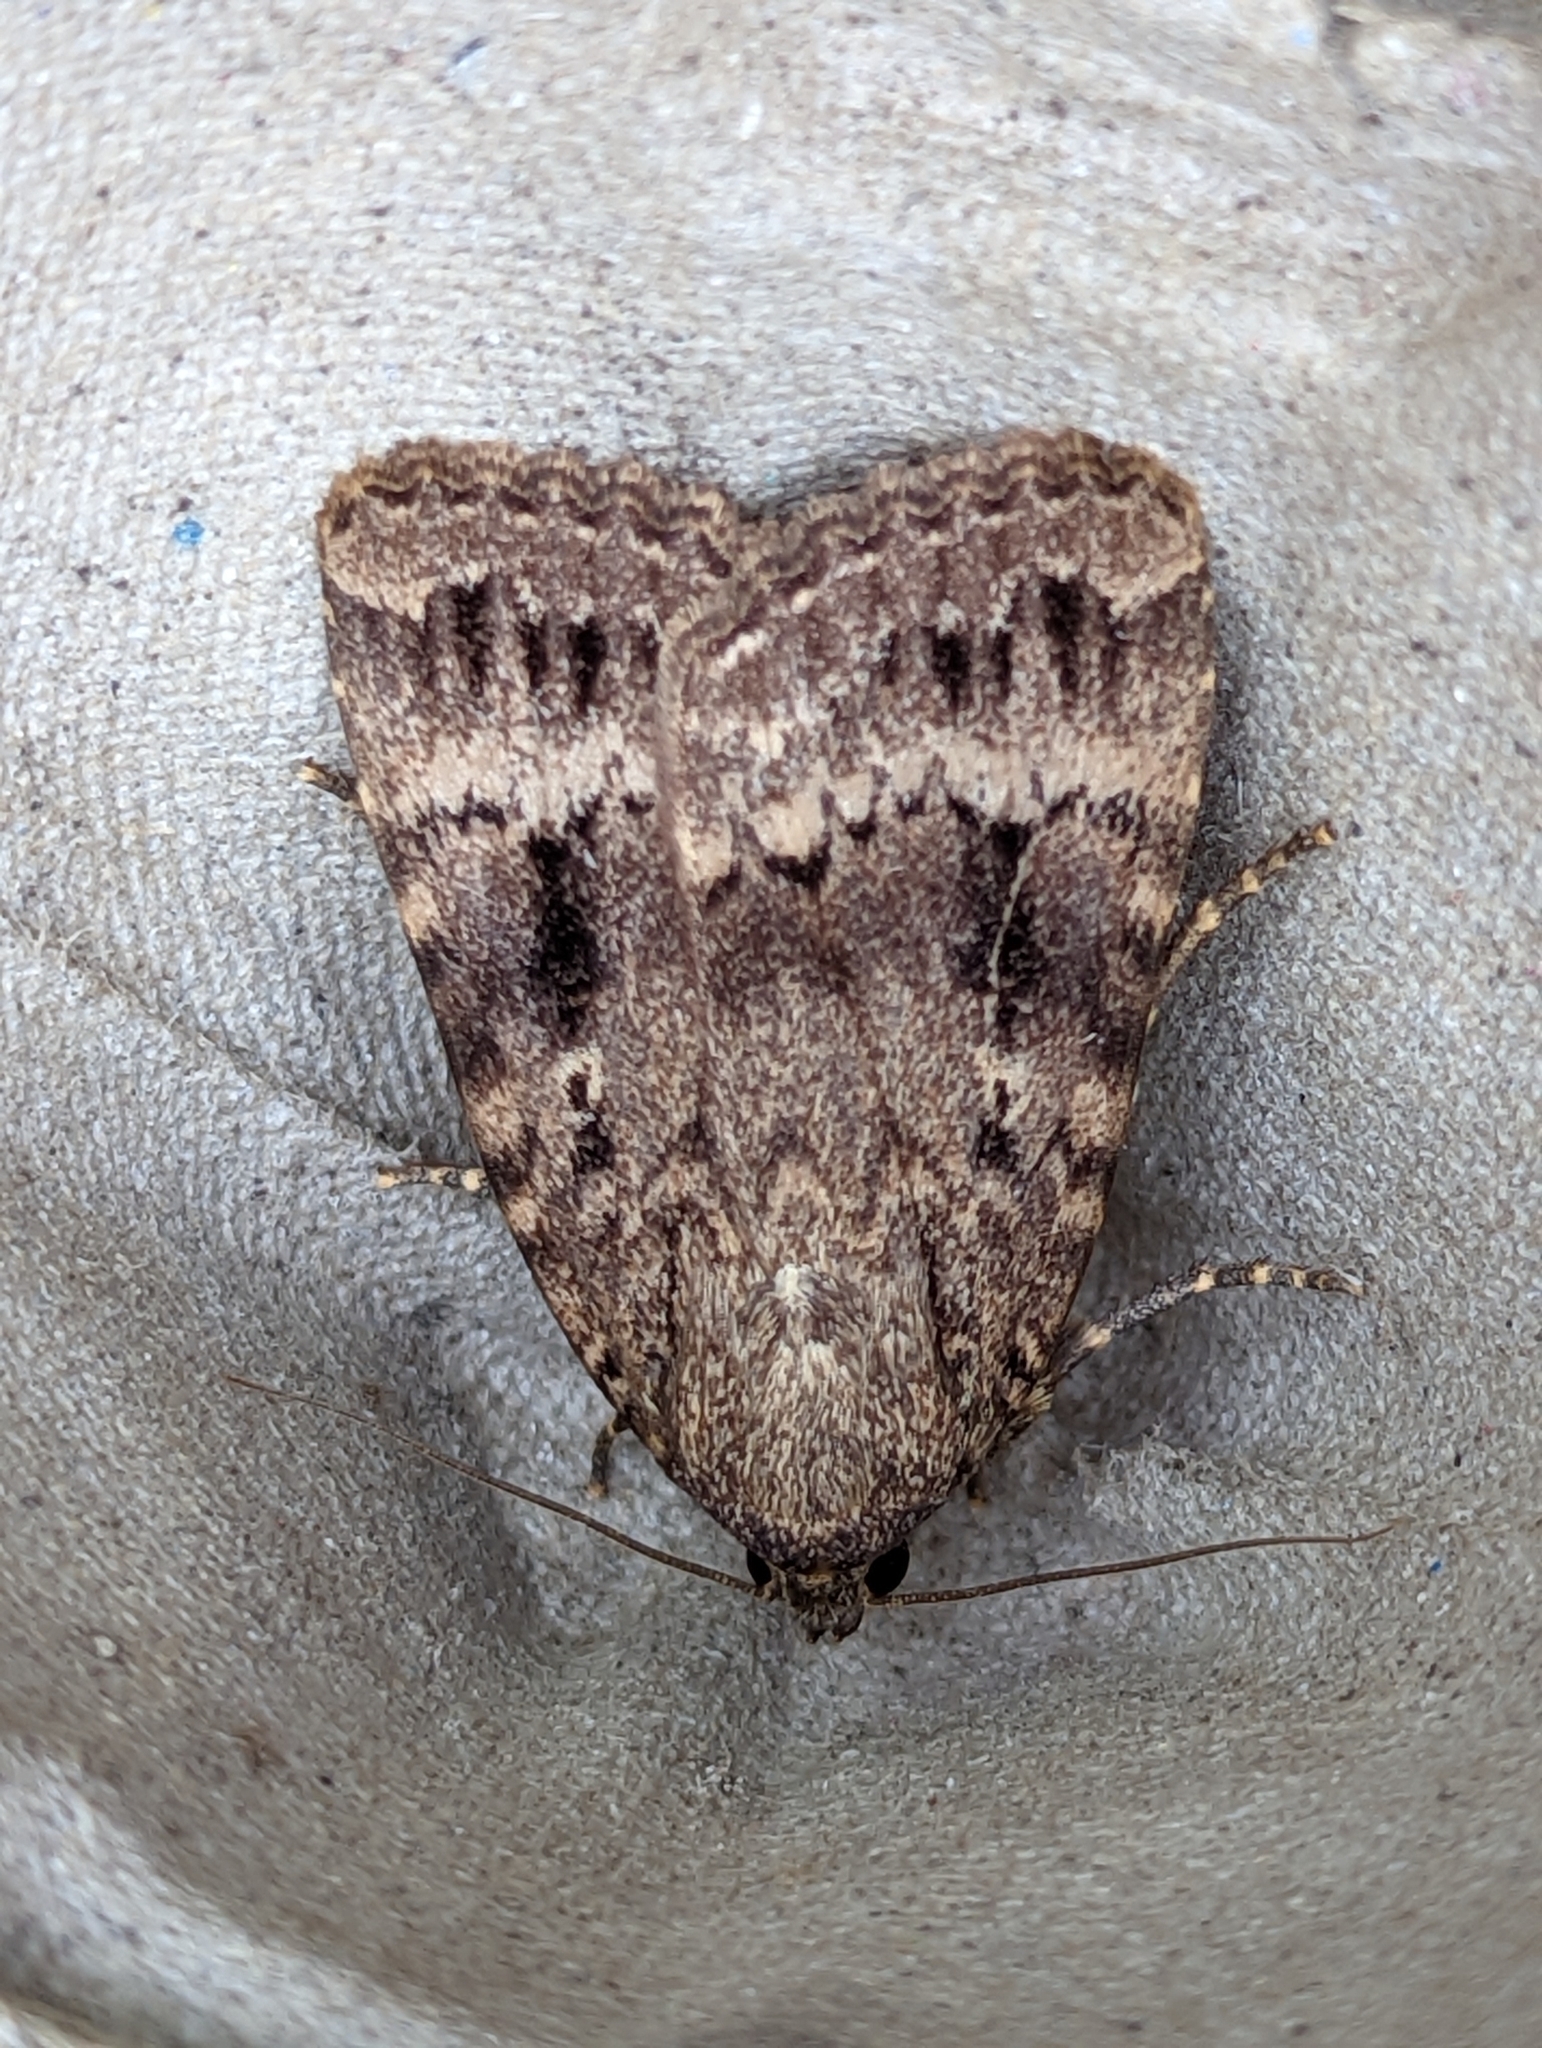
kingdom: Animalia
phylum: Arthropoda
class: Insecta
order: Lepidoptera
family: Noctuidae
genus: Amphipyra
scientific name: Amphipyra pyramidea
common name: Copper underwing
